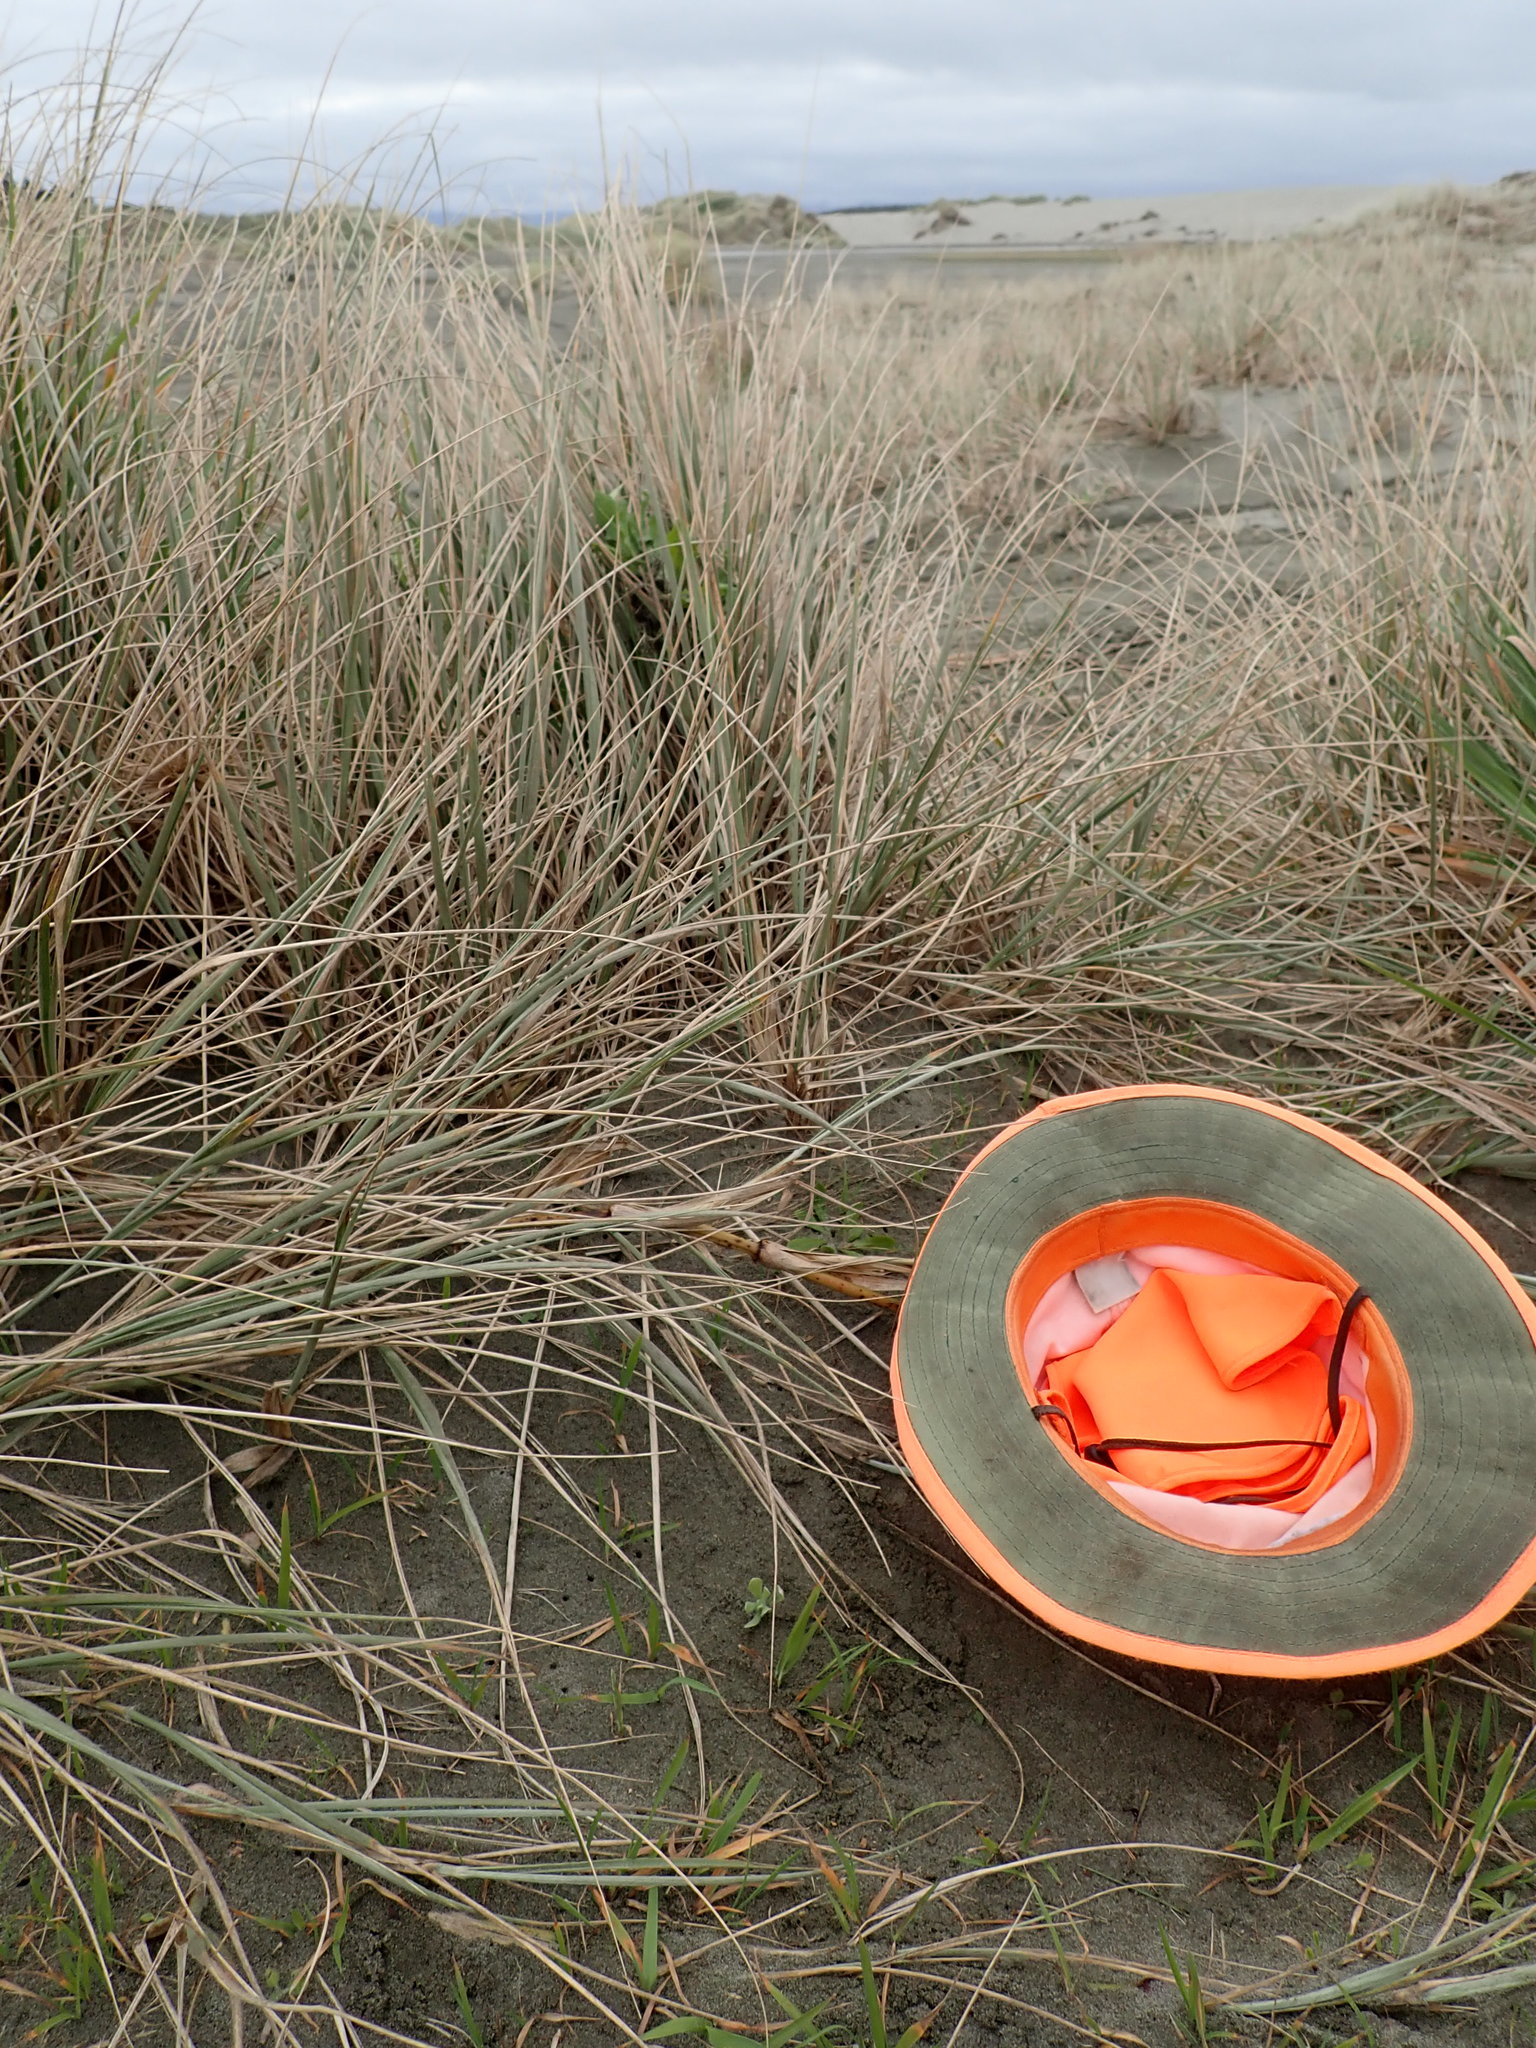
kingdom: Plantae
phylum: Tracheophyta
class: Magnoliopsida
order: Asterales
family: Asteraceae
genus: Helichrysum
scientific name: Helichrysum luteoalbum
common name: Daisy
